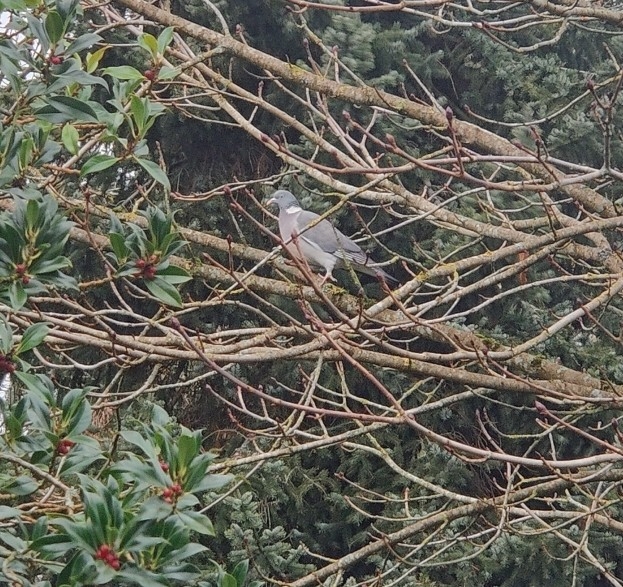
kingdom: Animalia
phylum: Chordata
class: Aves
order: Columbiformes
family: Columbidae
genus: Columba
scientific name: Columba palumbus
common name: Common wood pigeon
